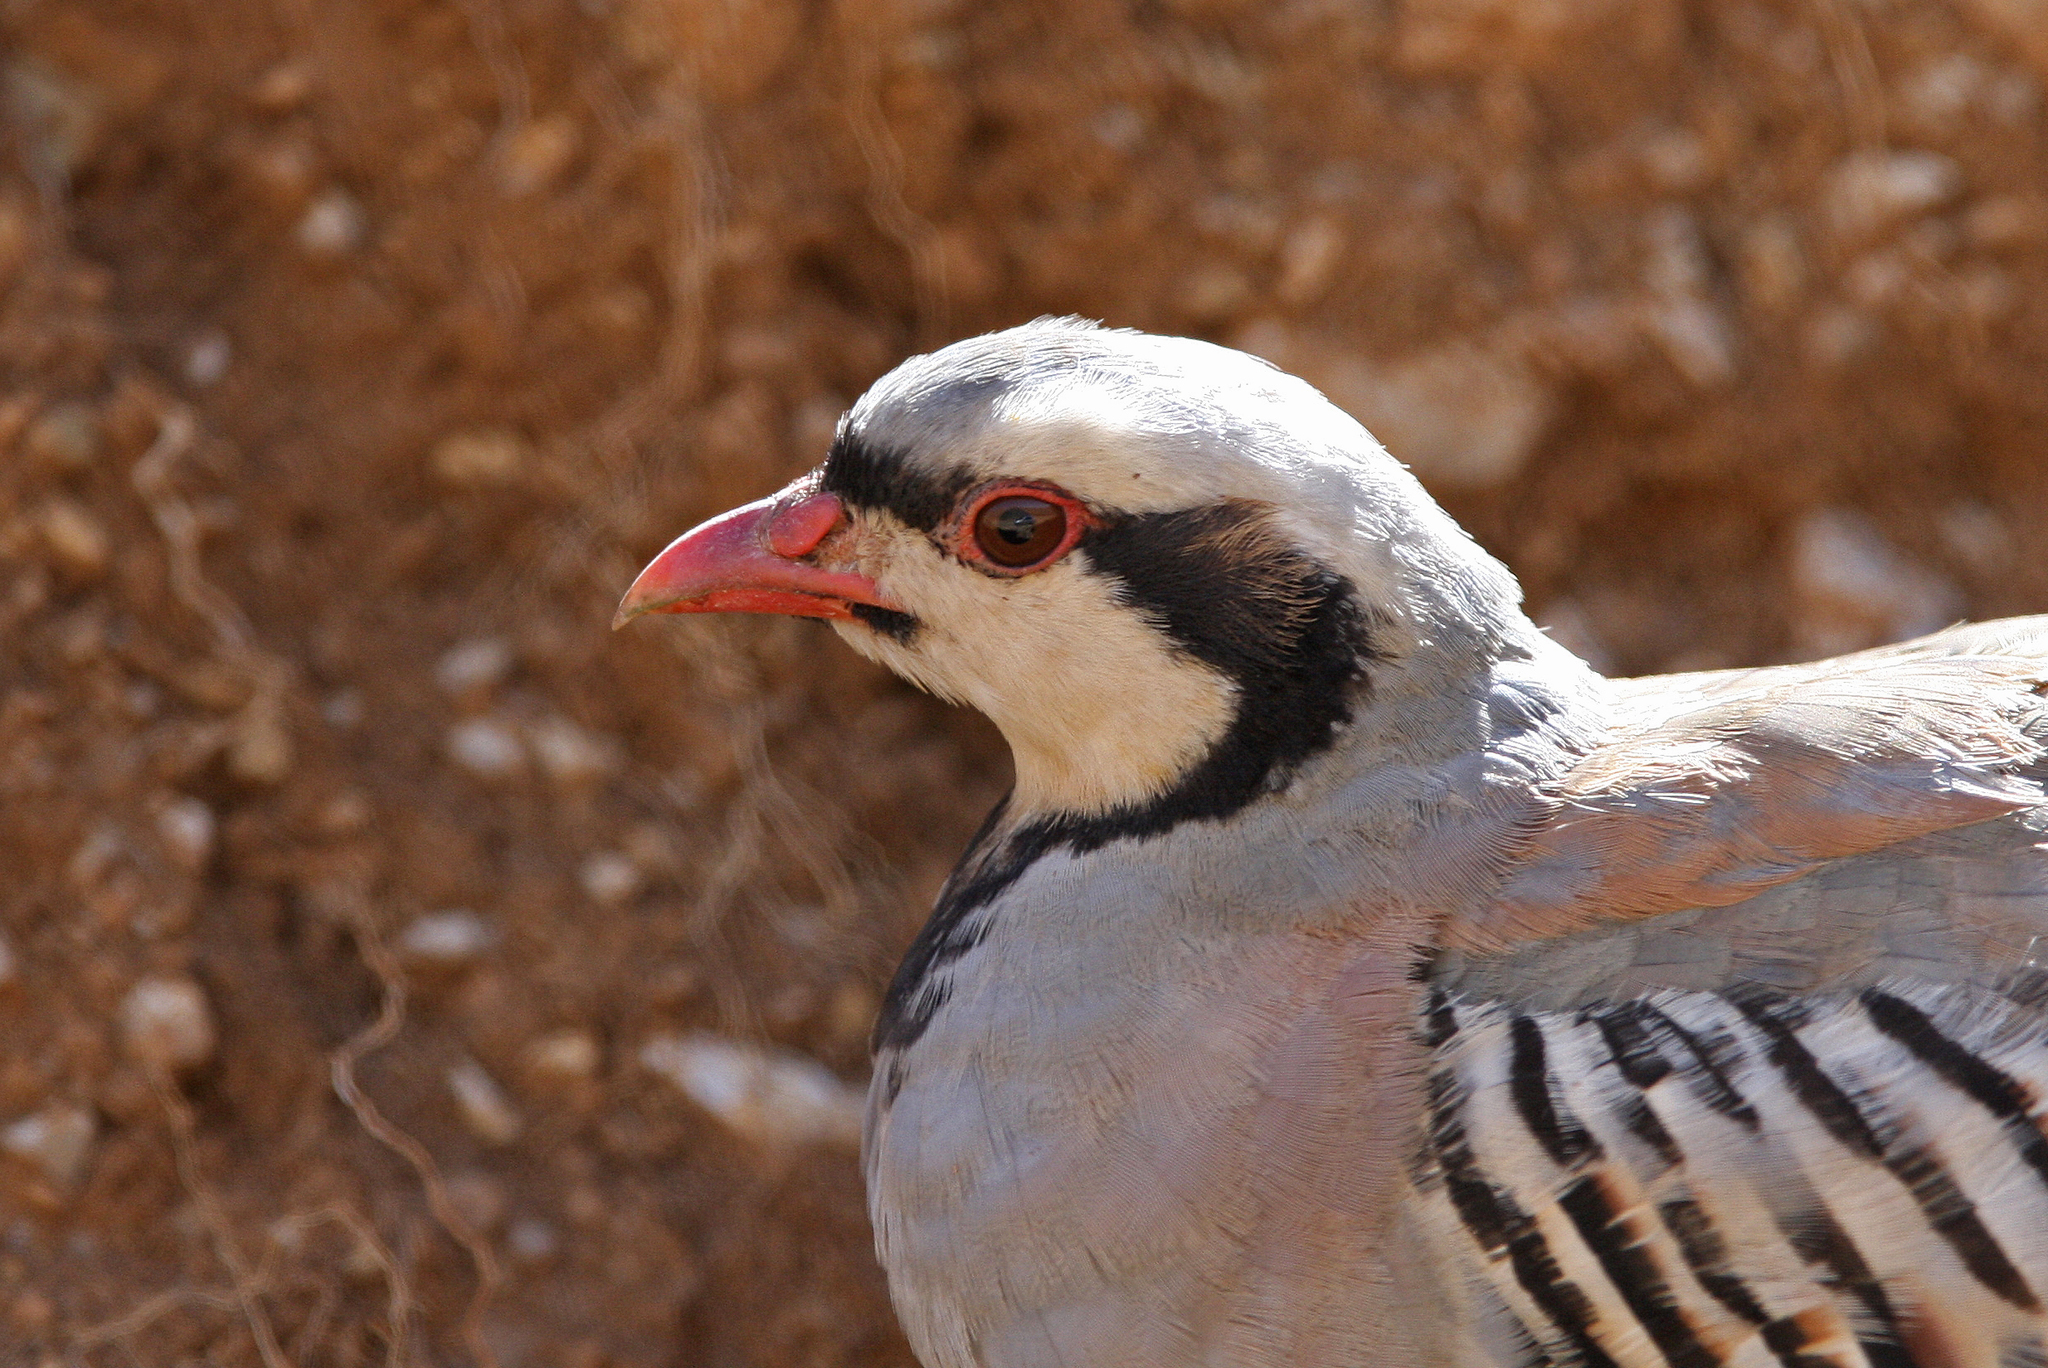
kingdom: Animalia
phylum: Chordata
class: Aves
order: Galliformes
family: Phasianidae
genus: Alectoris
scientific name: Alectoris chukar
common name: Chukar
